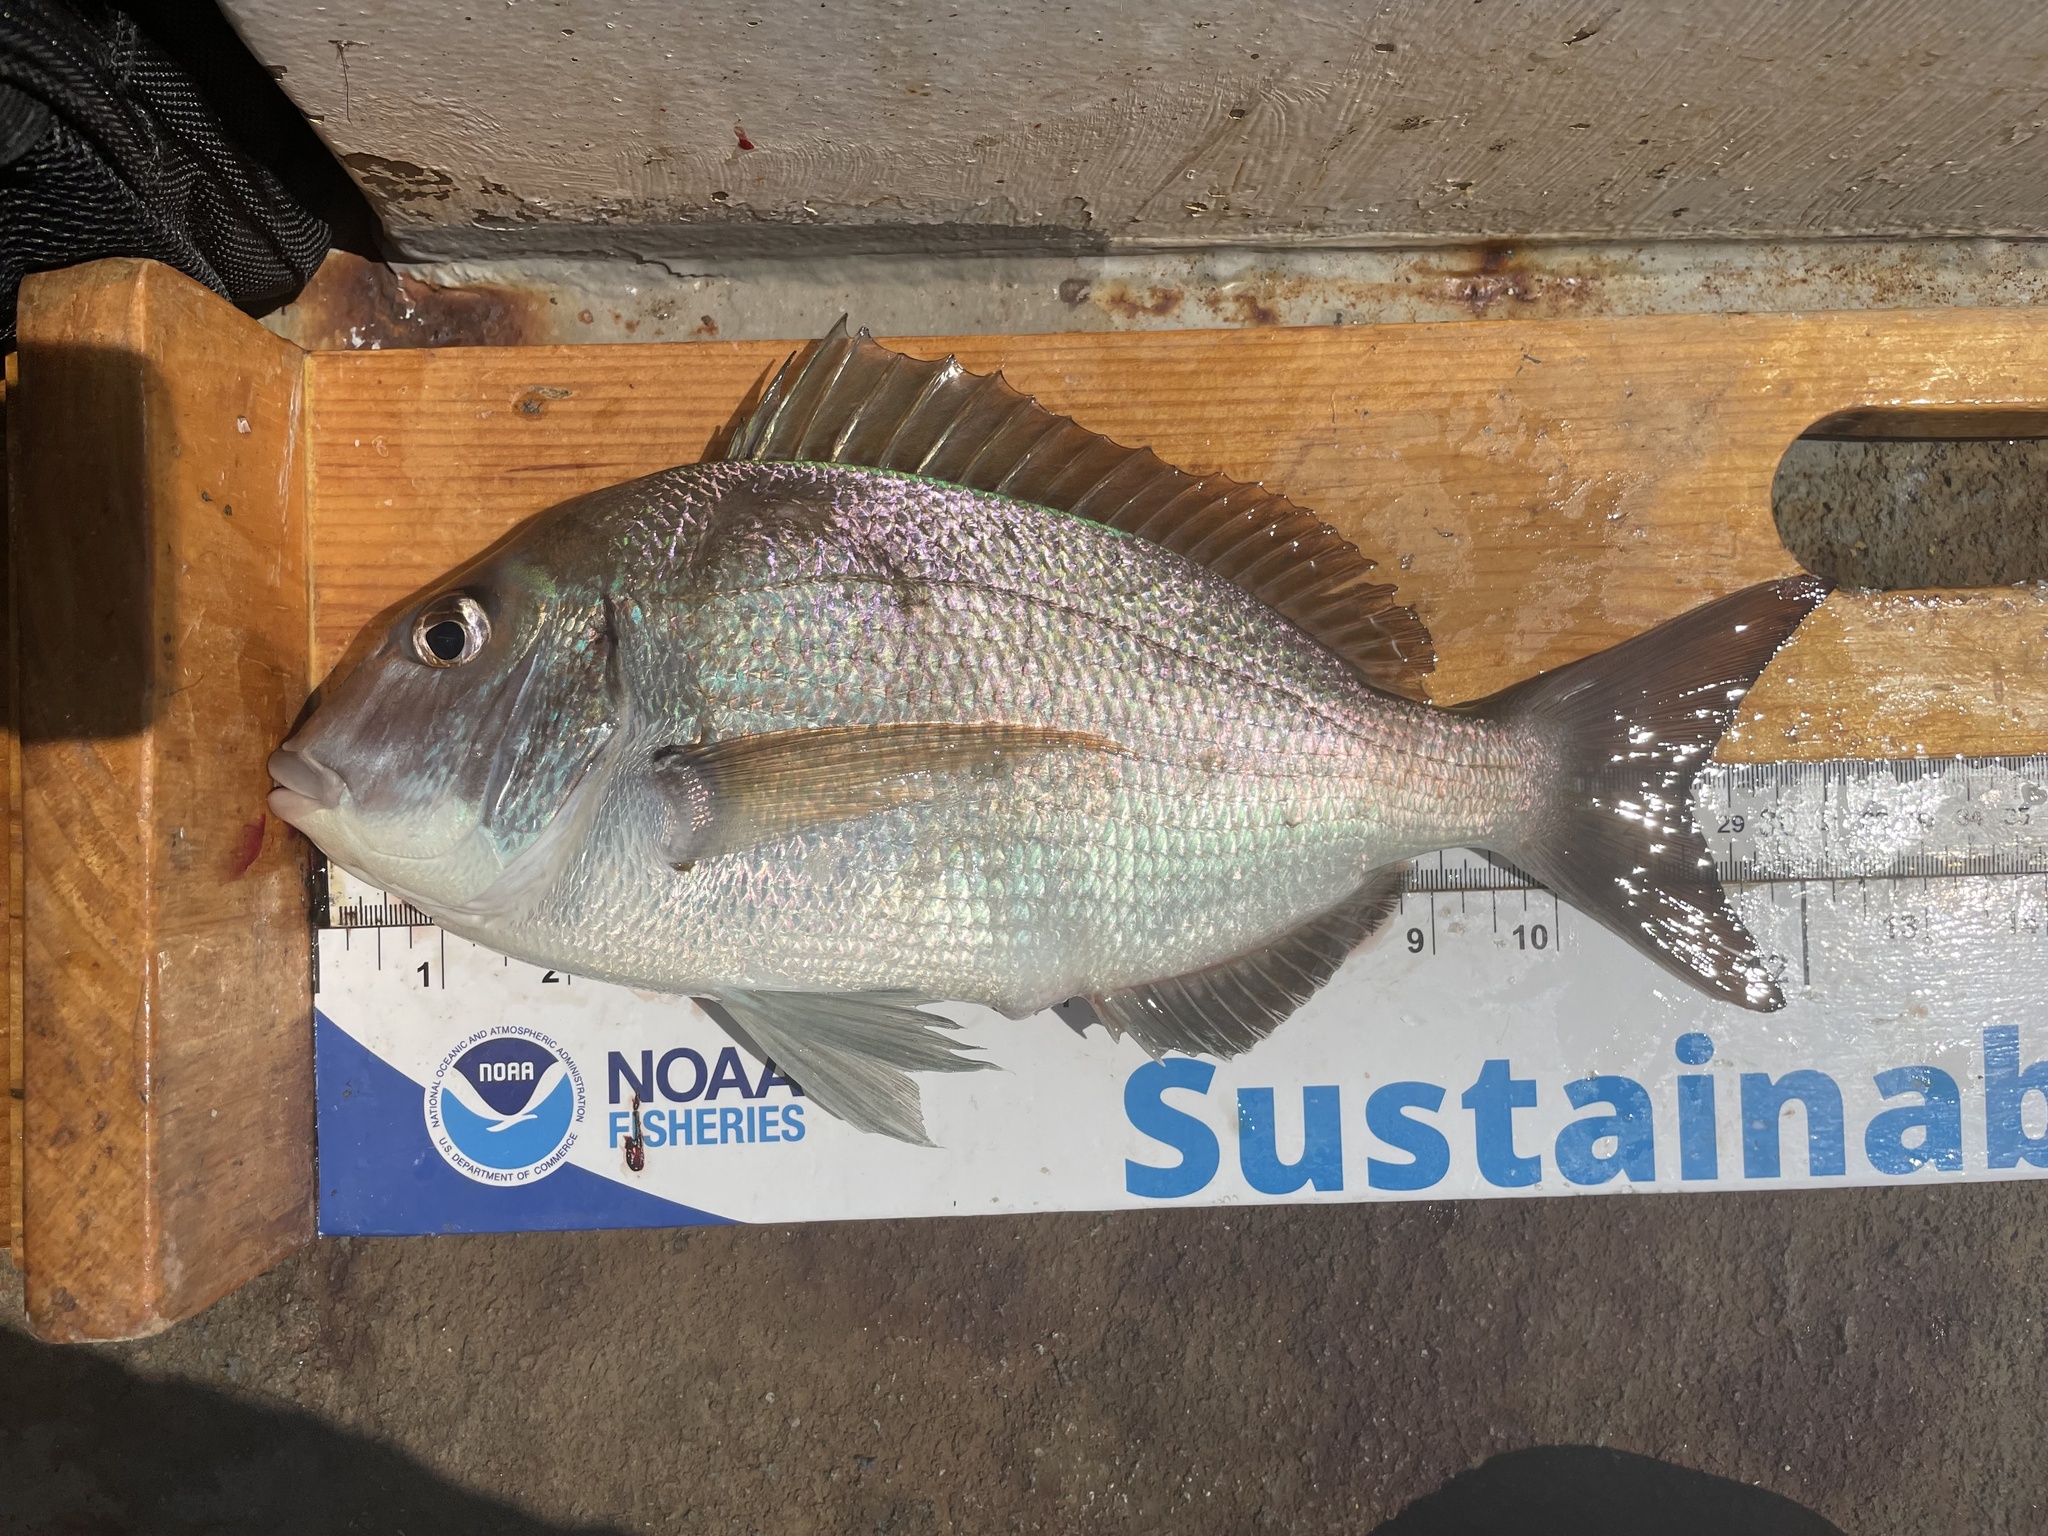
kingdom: Animalia
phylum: Chordata
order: Perciformes
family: Sparidae
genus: Stenotomus
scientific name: Stenotomus chrysops
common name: Scup
